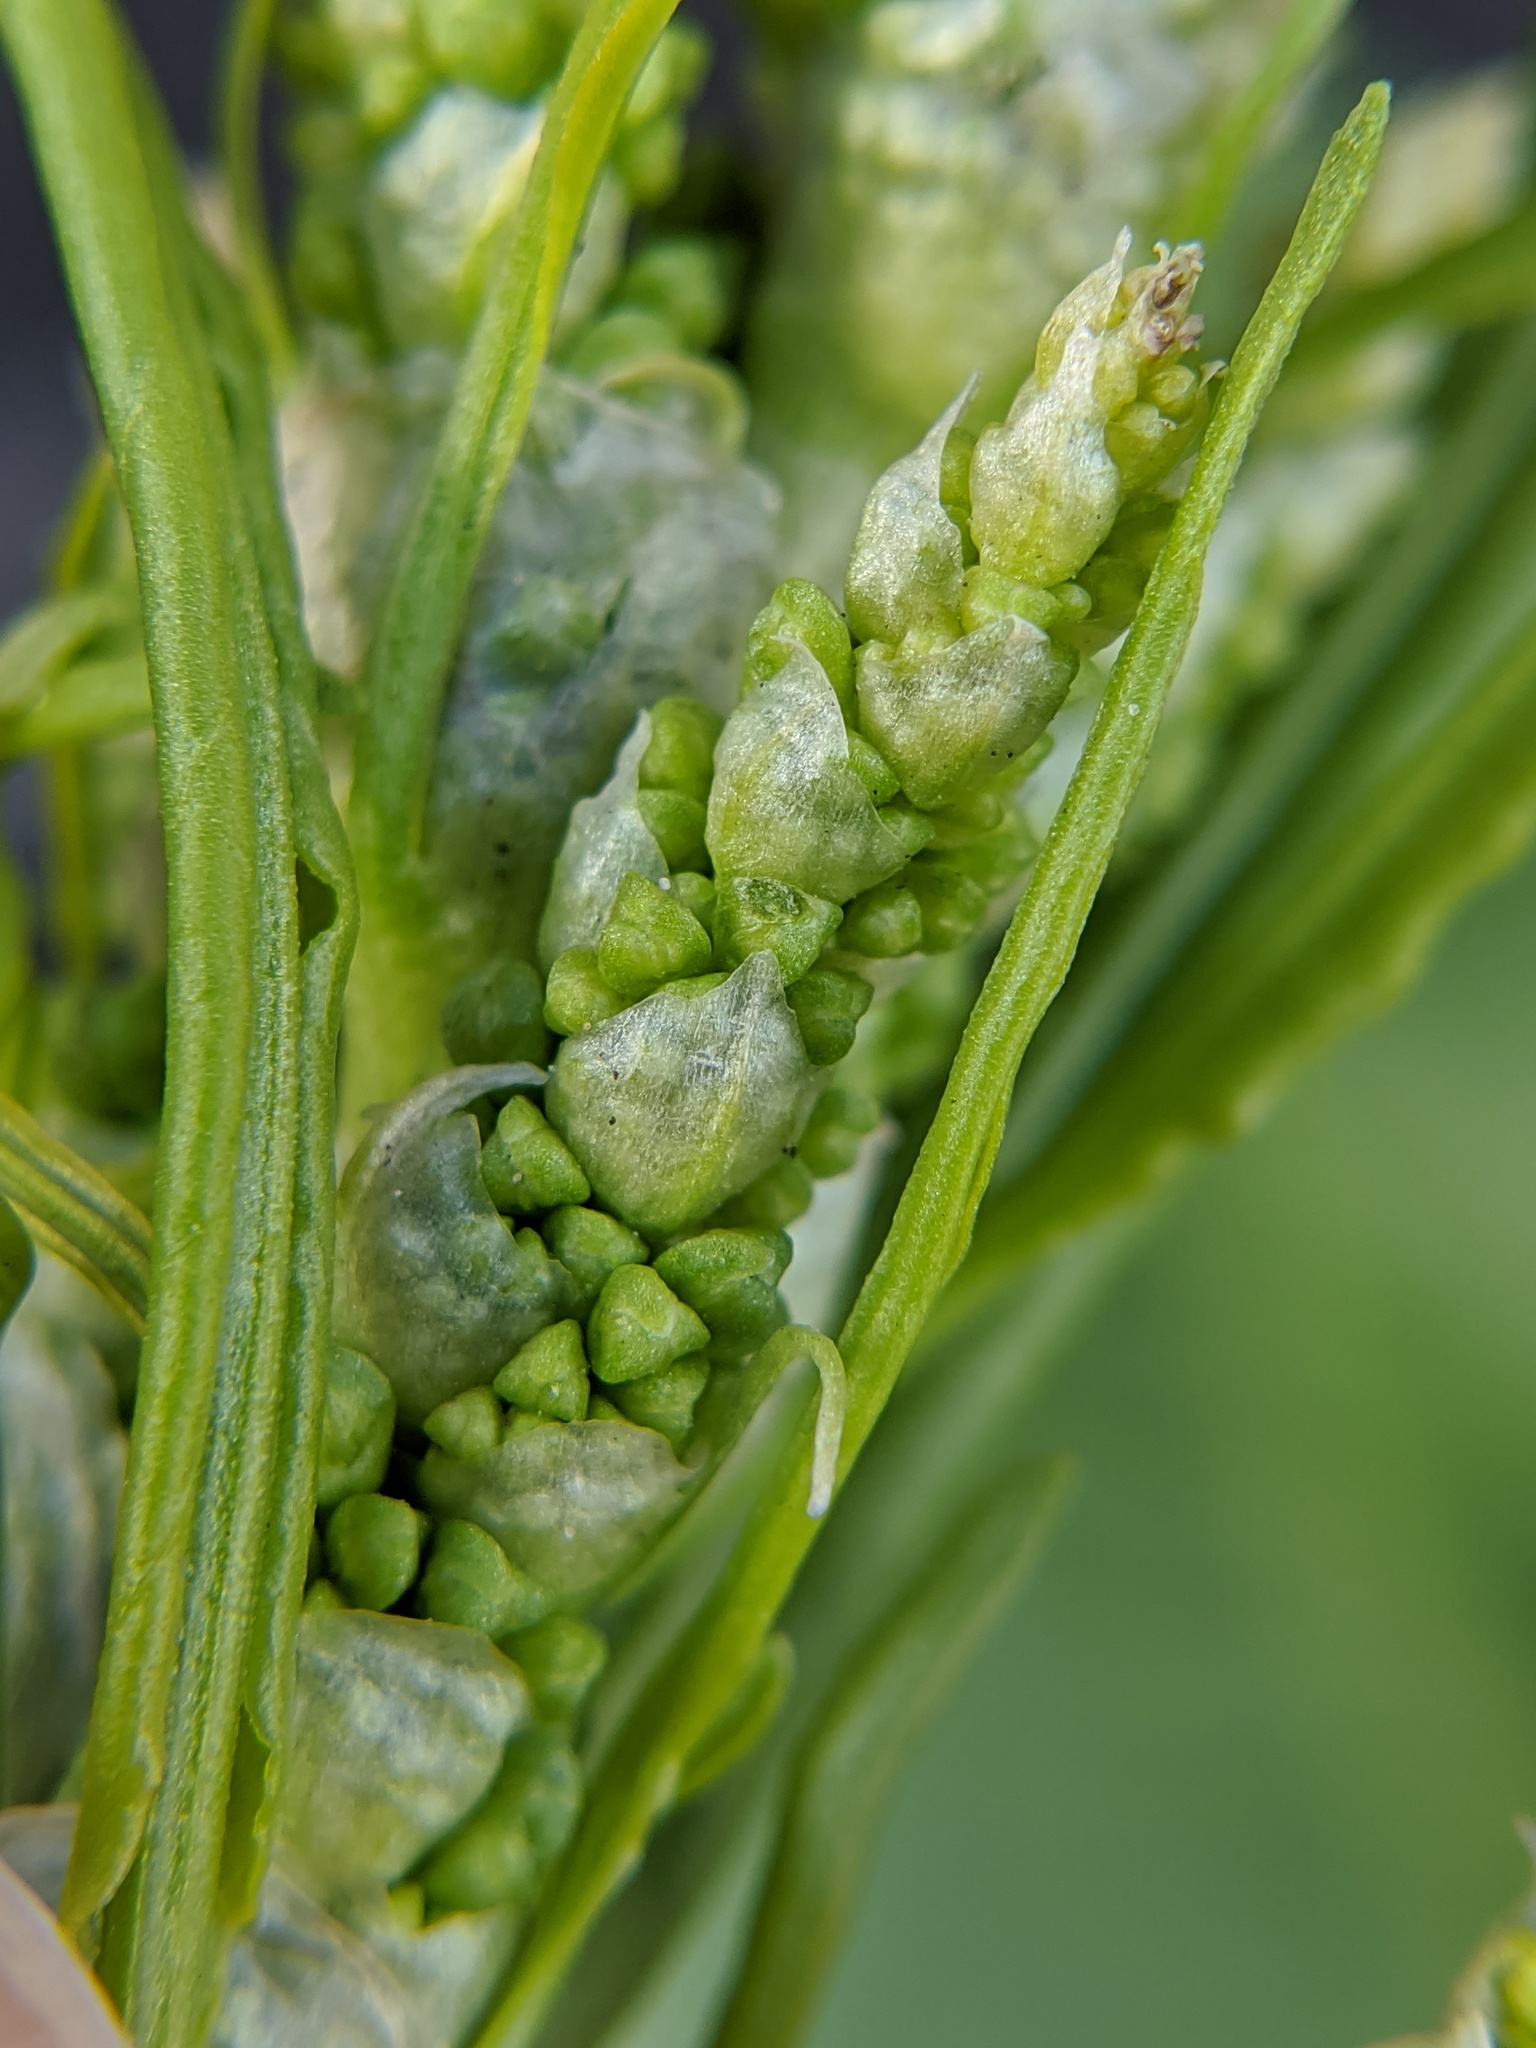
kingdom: Plantae
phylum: Tracheophyta
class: Magnoliopsida
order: Caryophyllales
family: Polygonaceae
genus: Rumex
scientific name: Rumex crispus
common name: Curled dock
